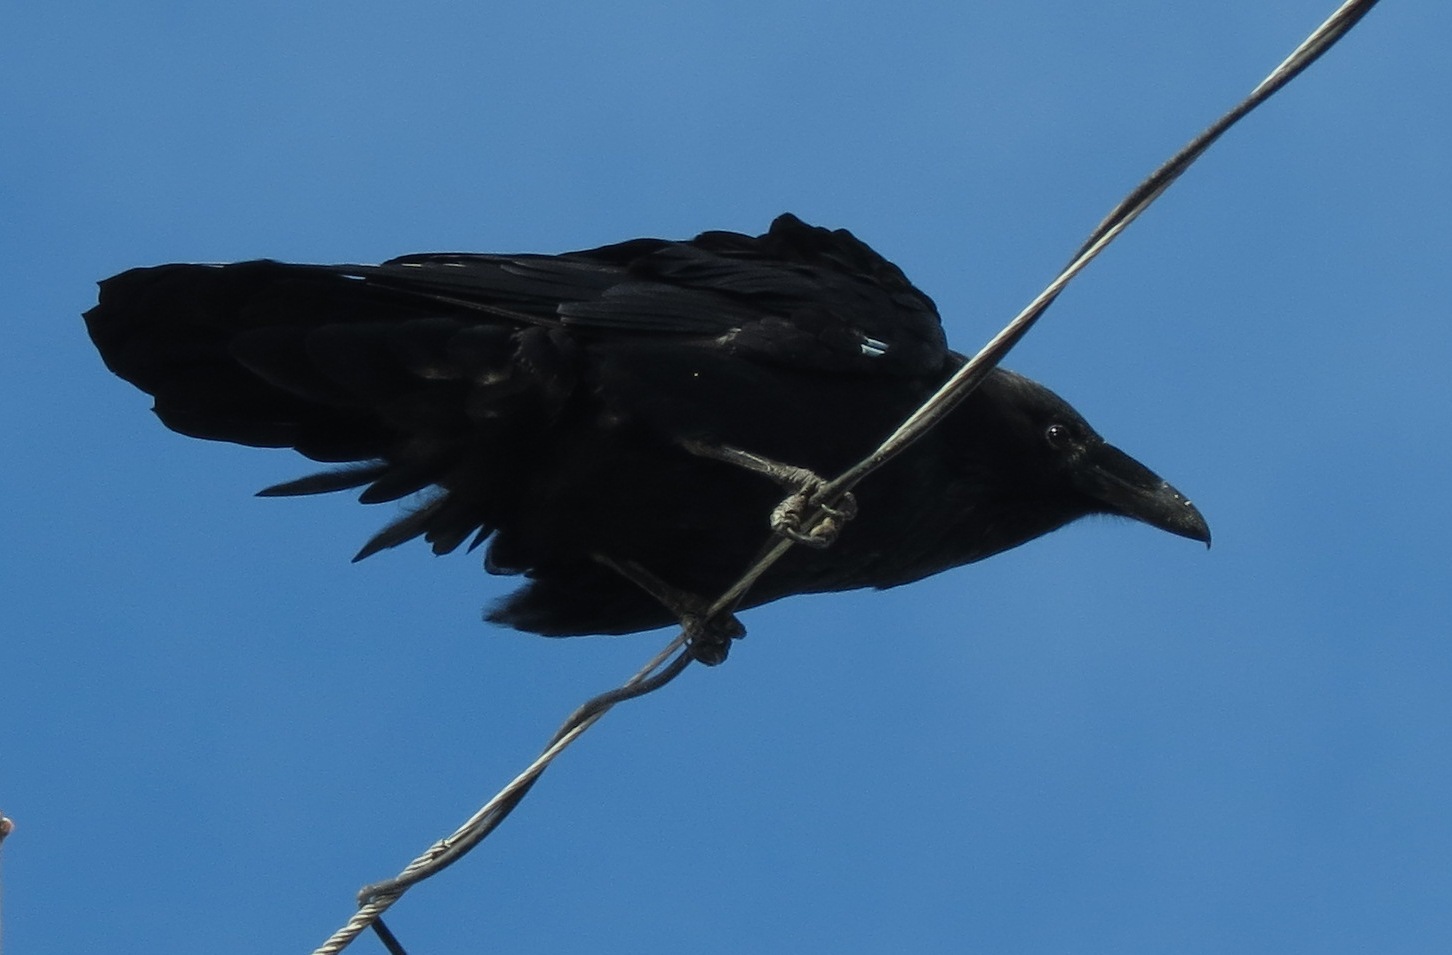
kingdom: Animalia
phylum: Chordata
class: Aves
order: Passeriformes
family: Corvidae
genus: Corvus
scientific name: Corvus corax
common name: Common raven
